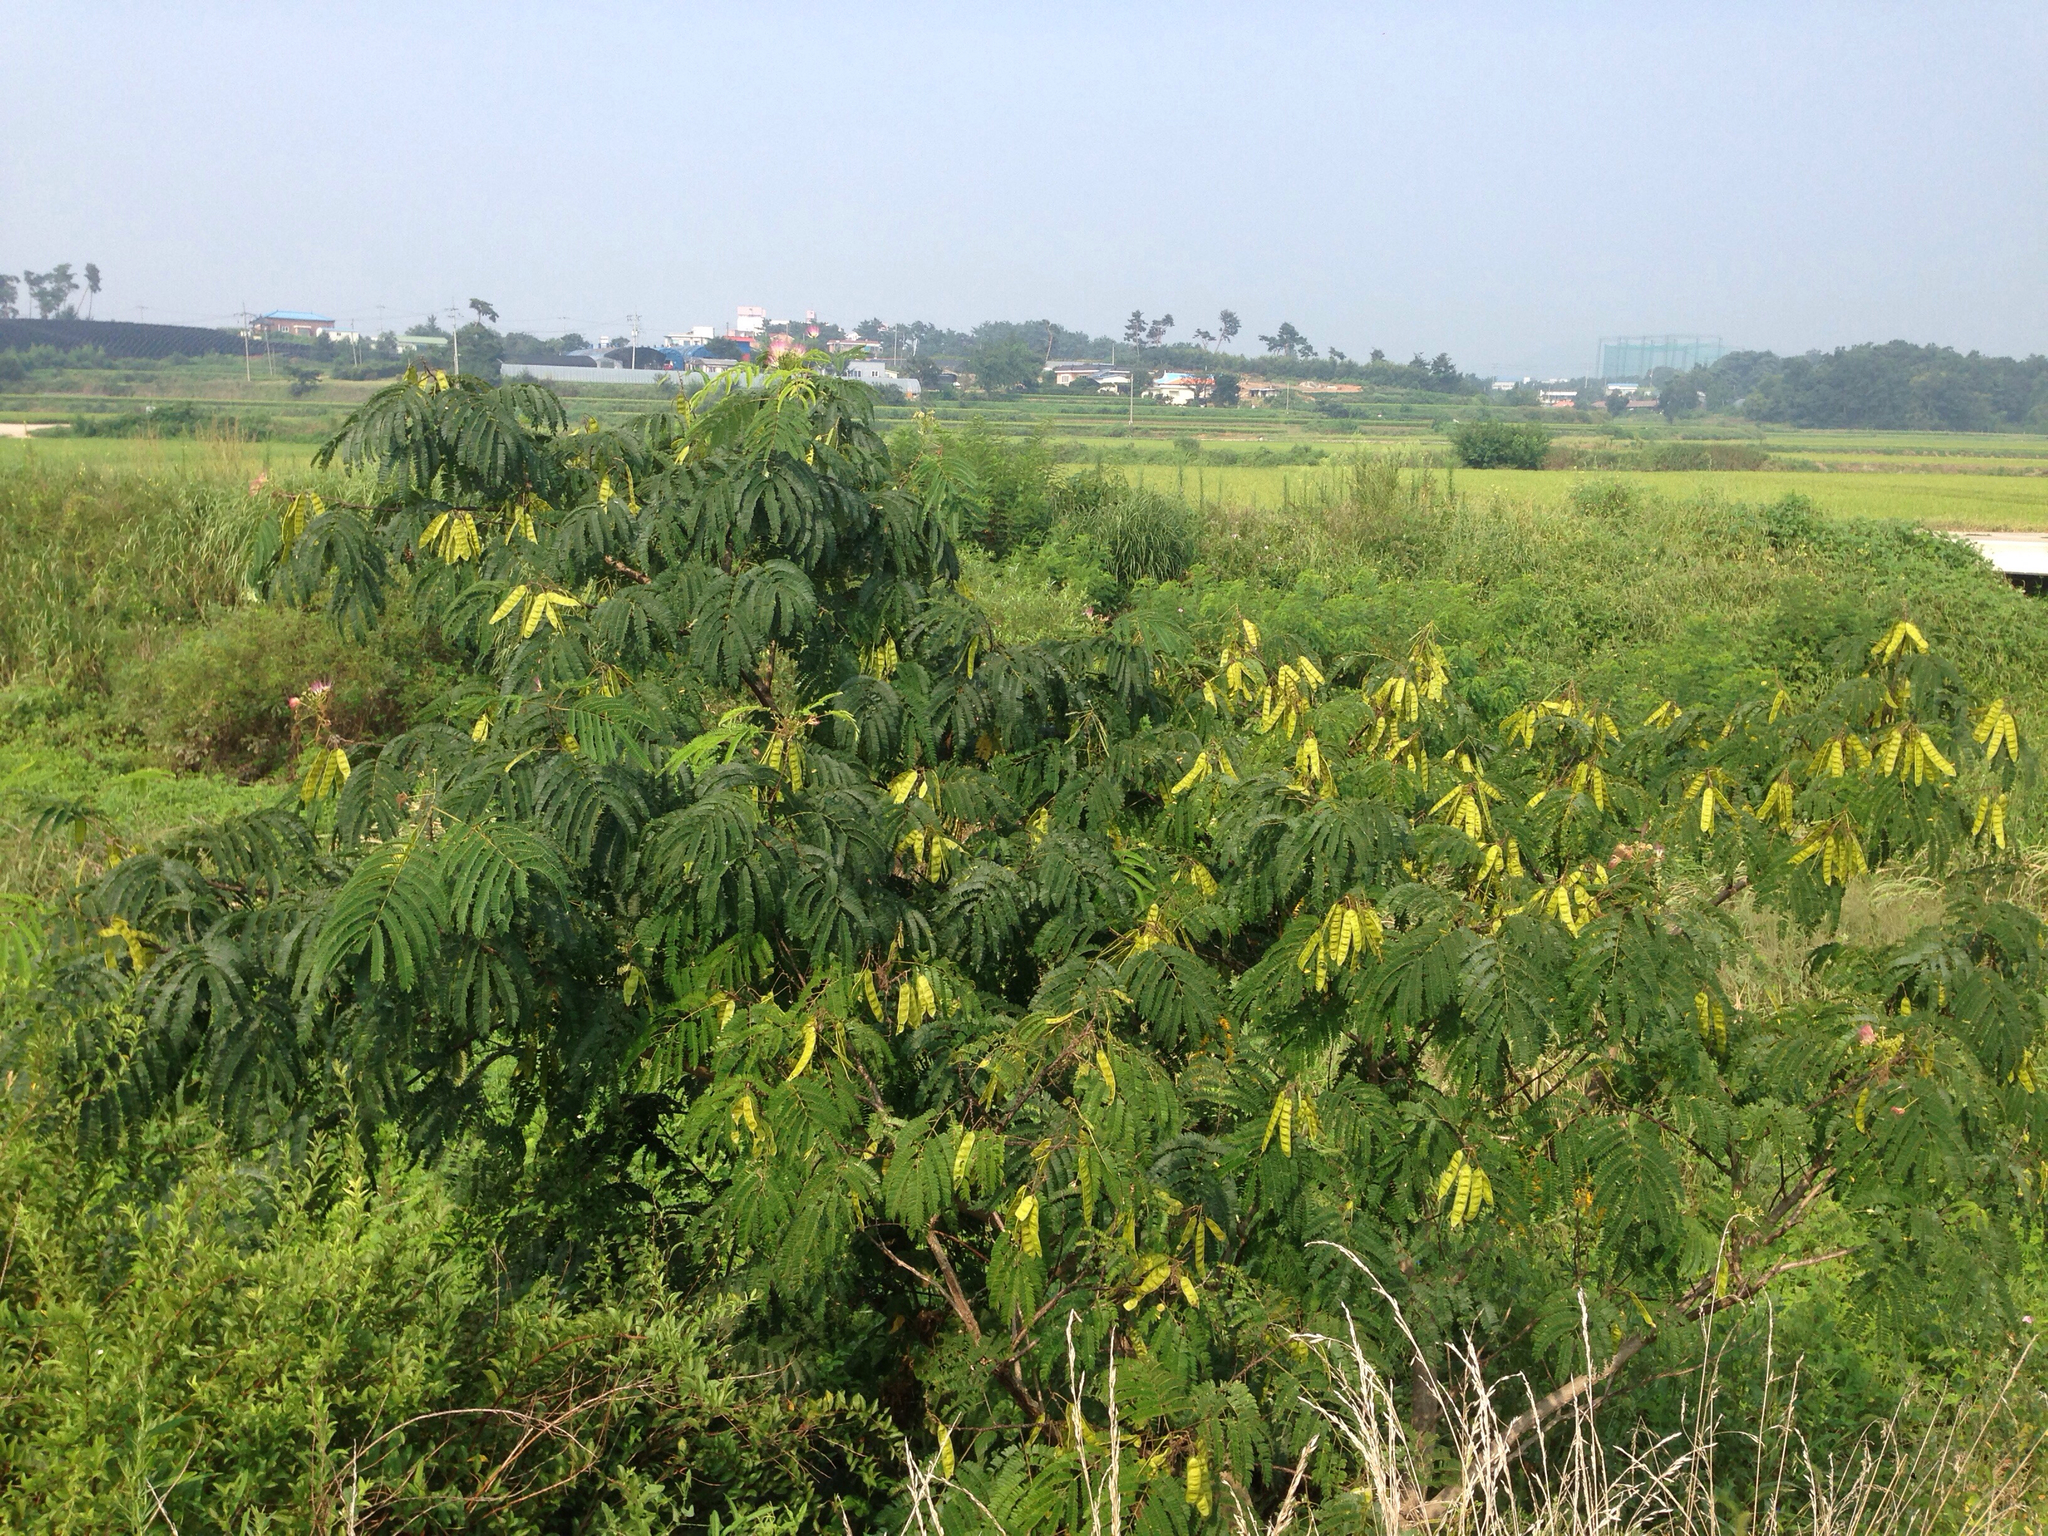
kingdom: Plantae
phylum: Tracheophyta
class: Magnoliopsida
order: Fabales
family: Fabaceae
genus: Albizia
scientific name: Albizia julibrissin
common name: Silktree
